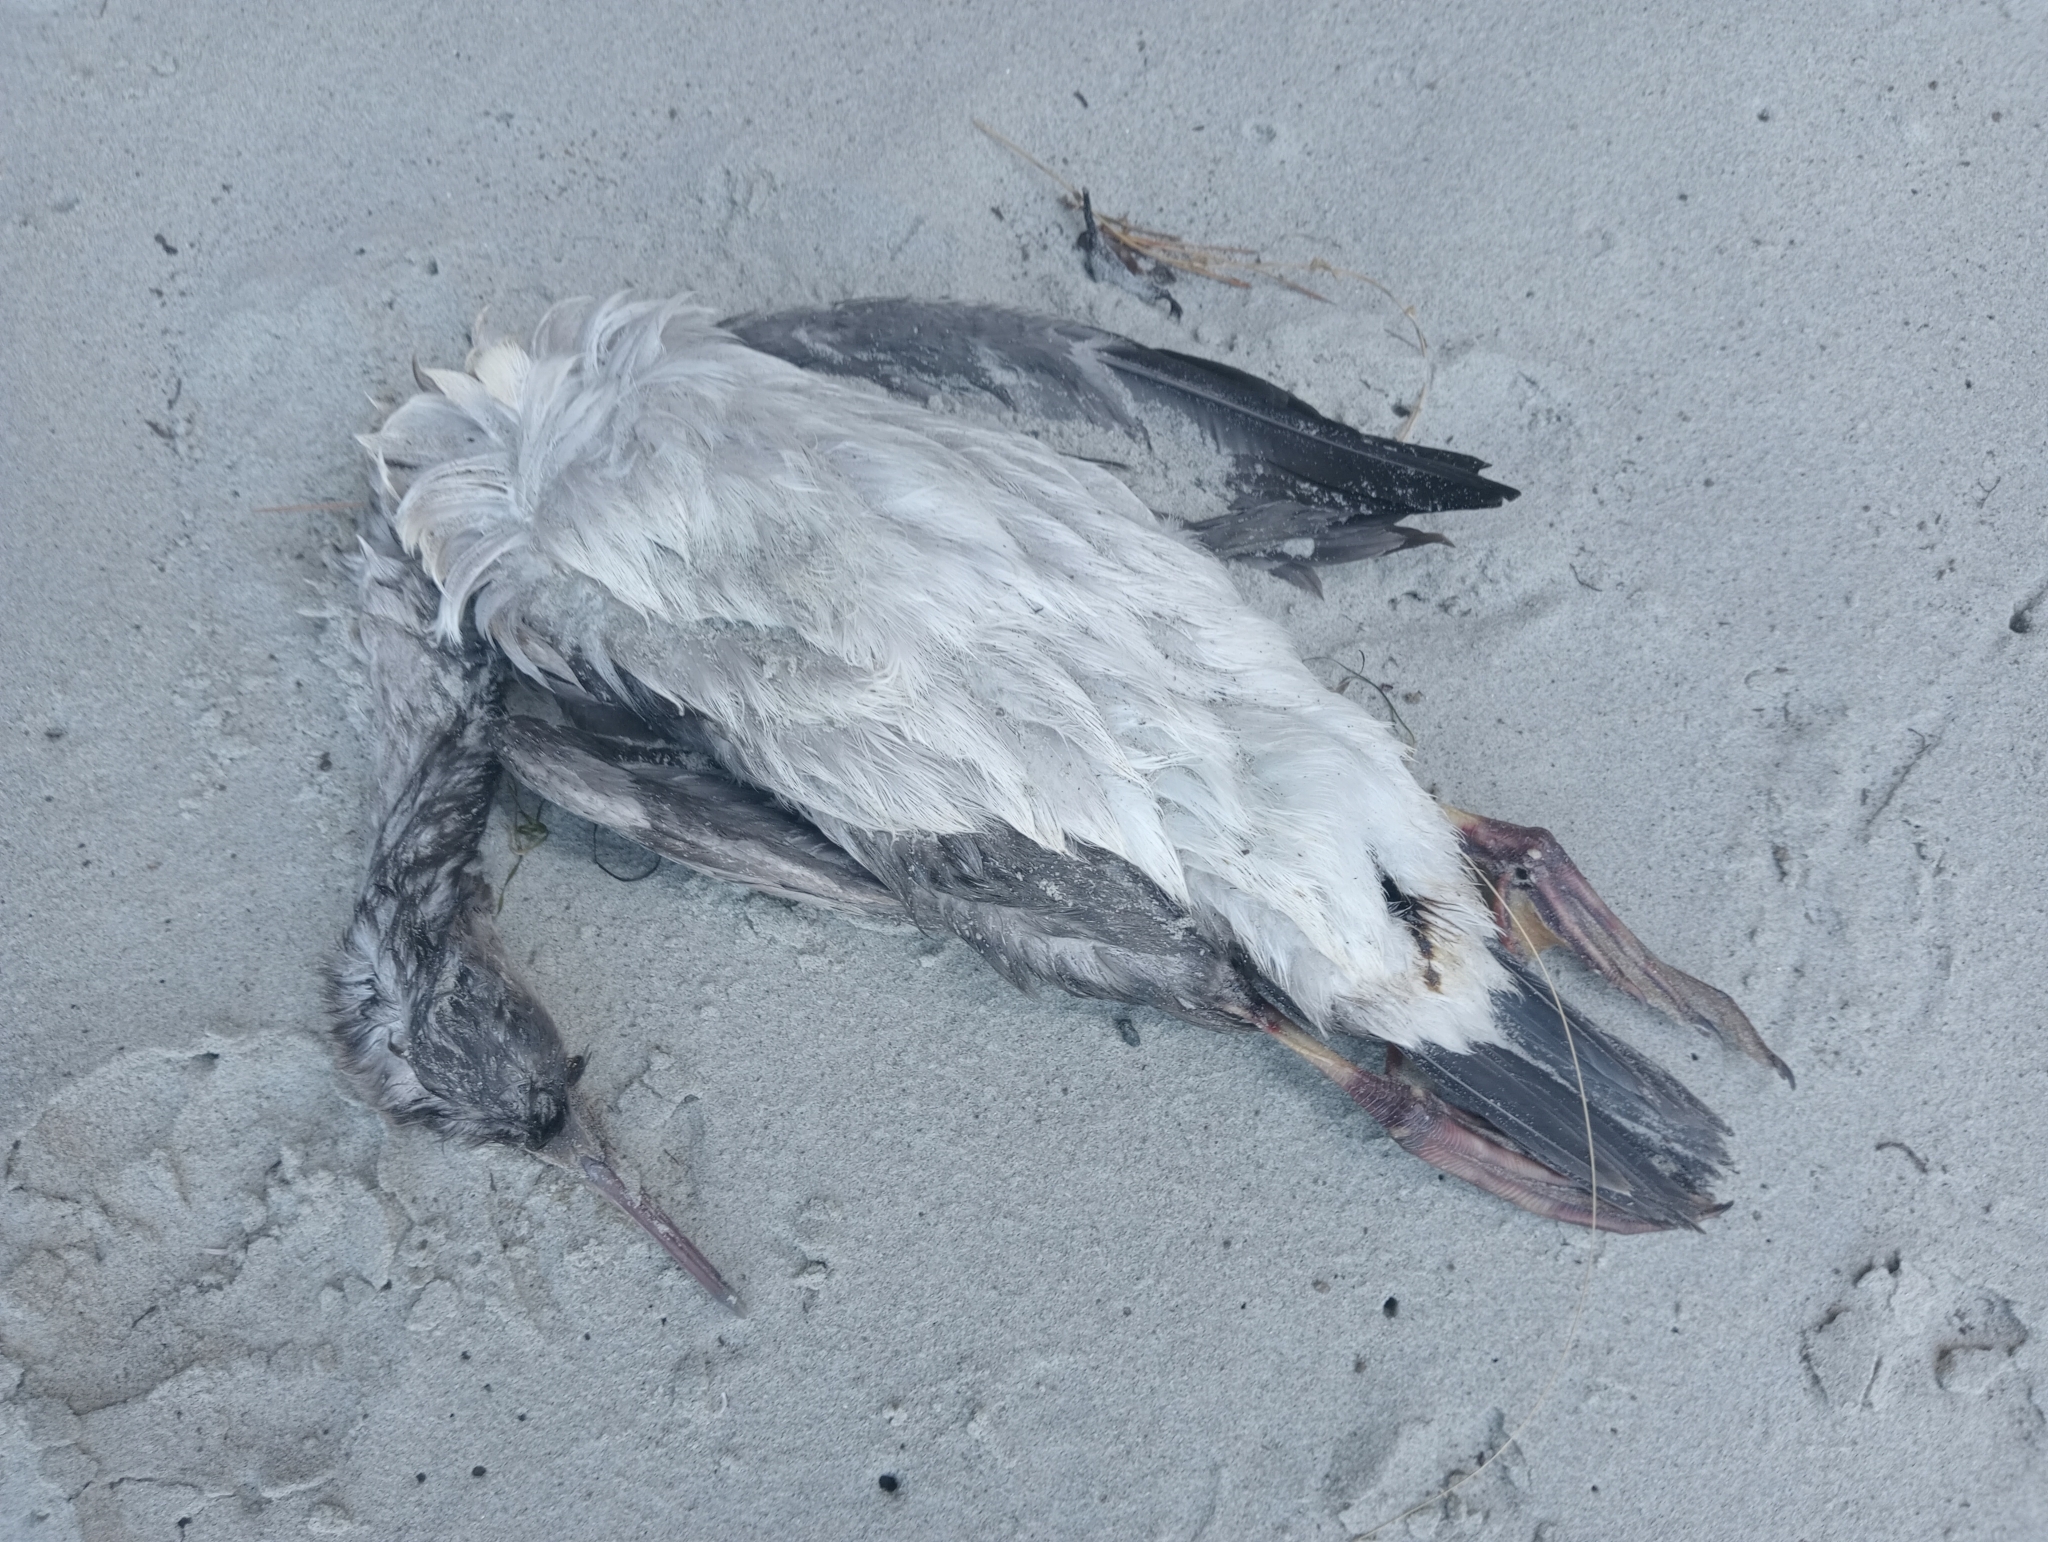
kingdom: Animalia
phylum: Chordata
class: Aves
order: Suliformes
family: Phalacrocoracidae
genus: Phalacrocorax
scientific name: Phalacrocorax punctatus
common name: Spotted shag
